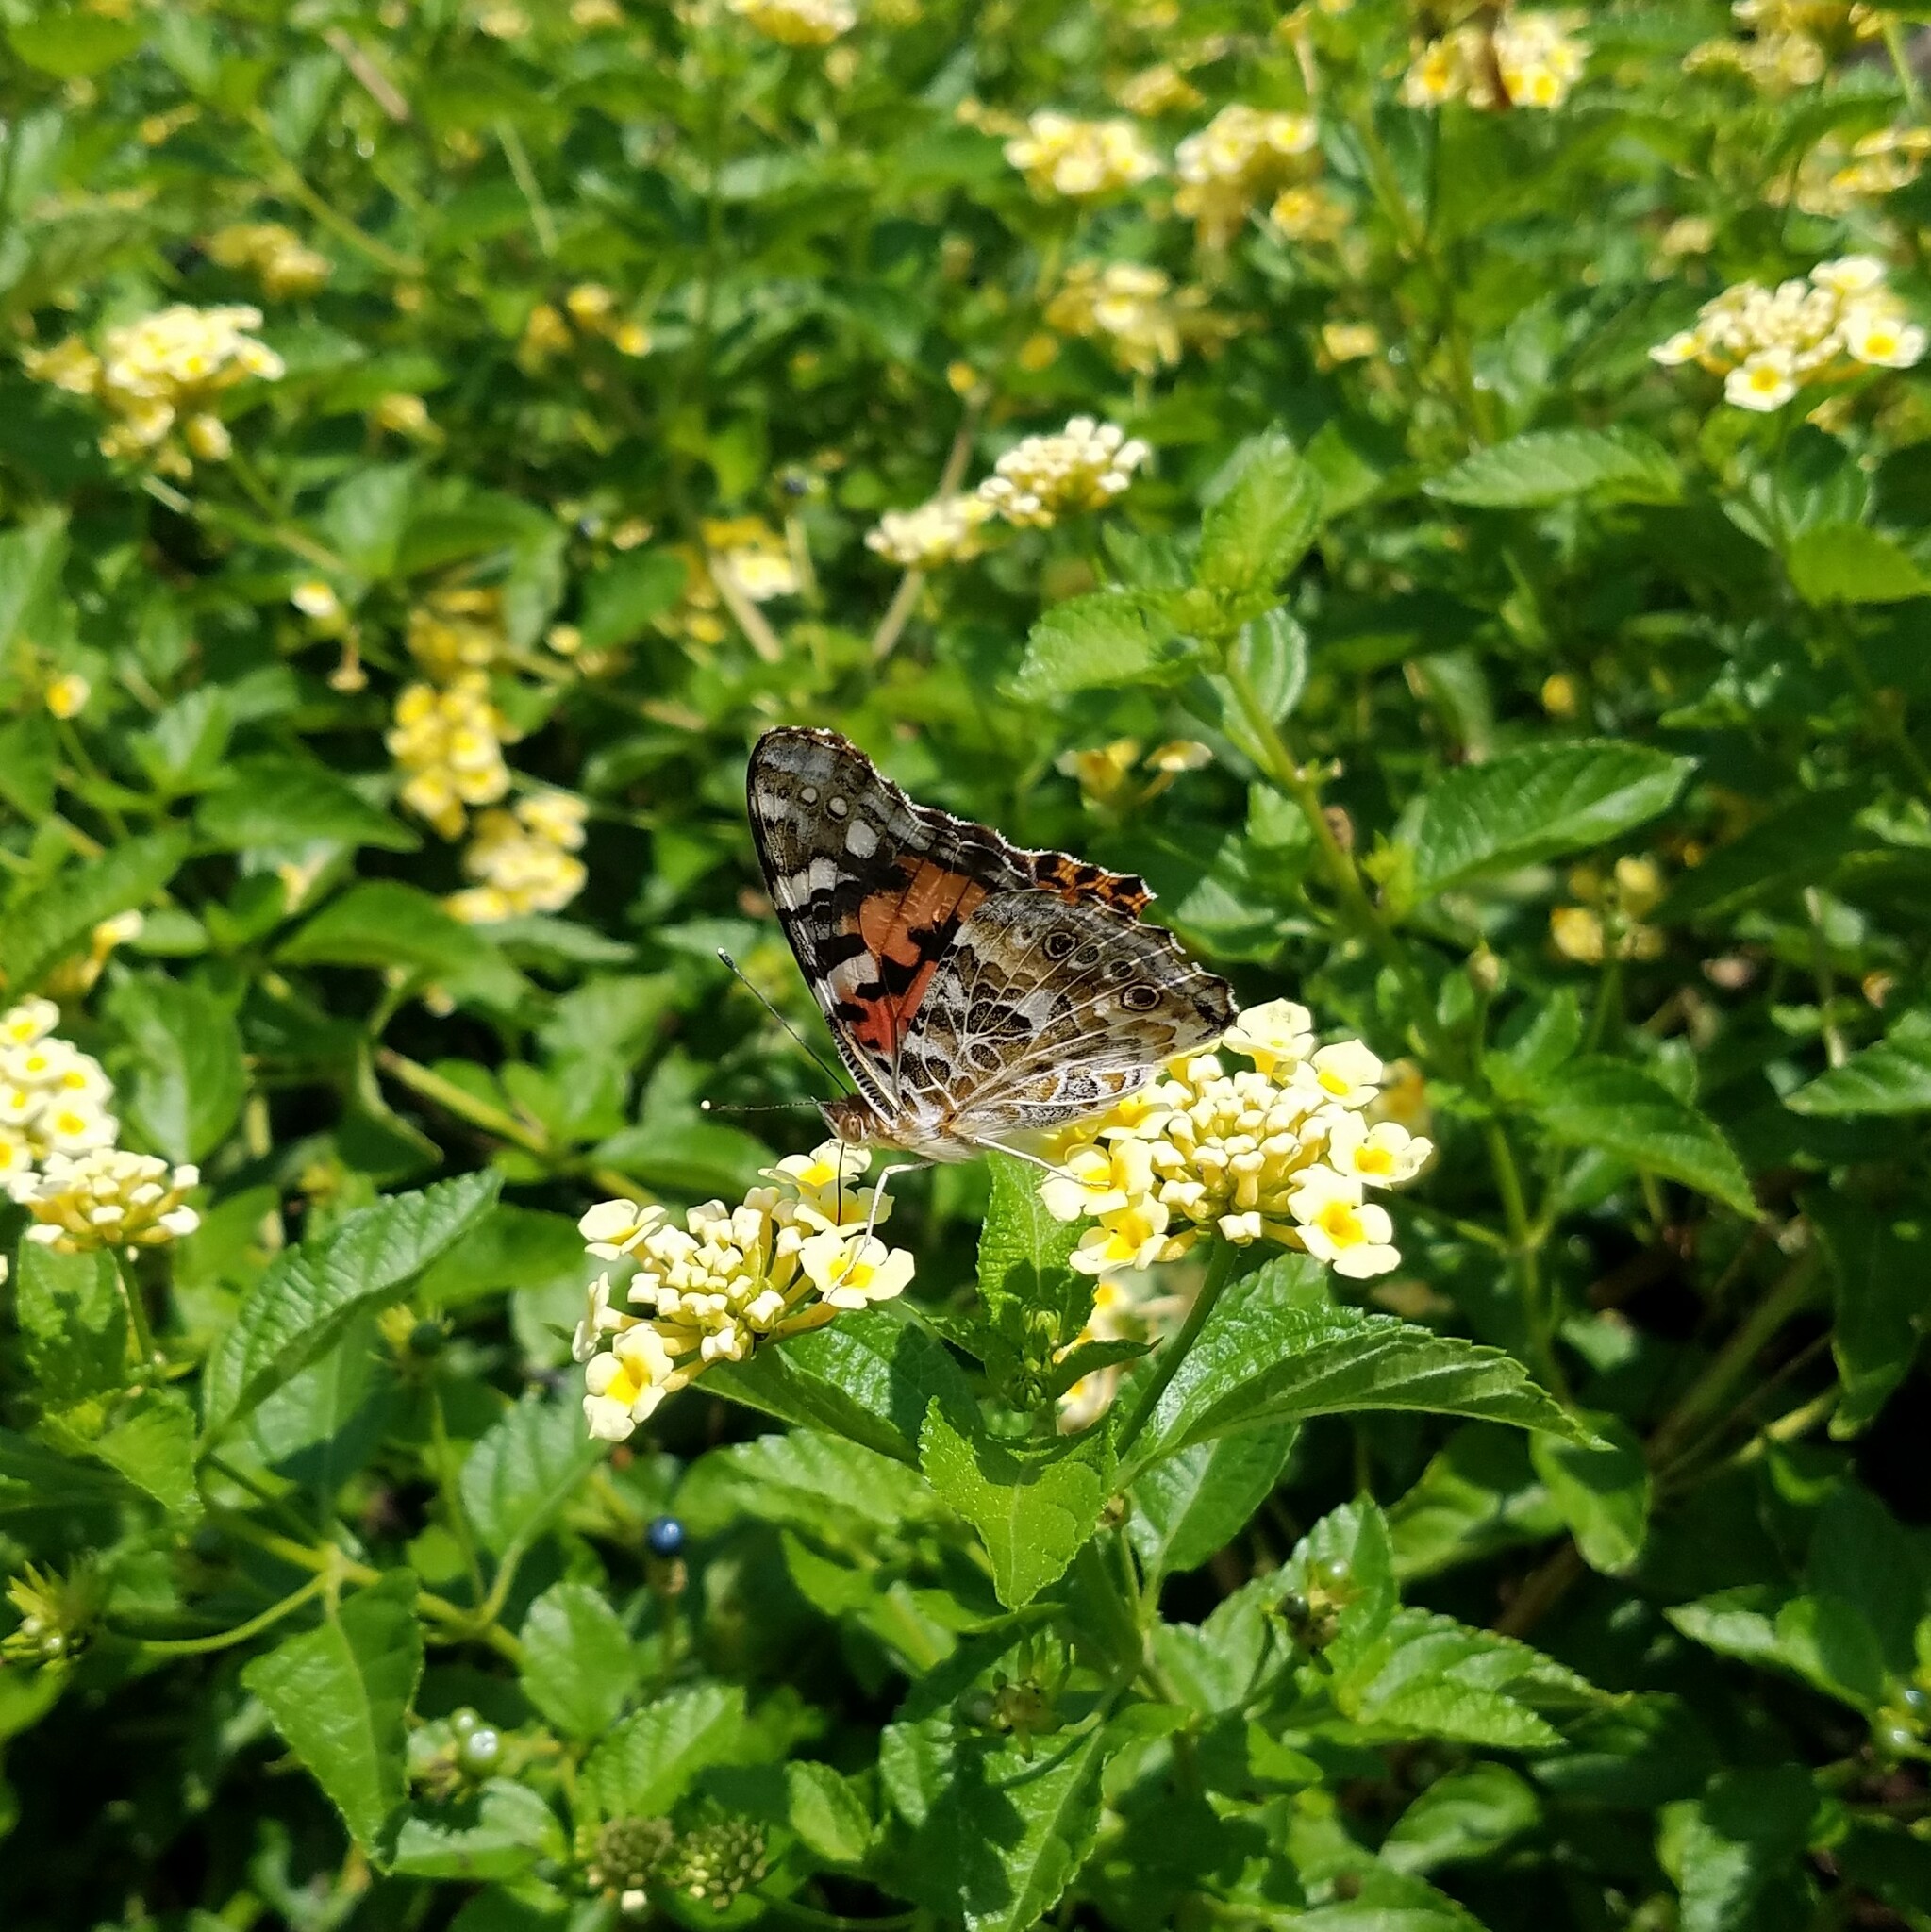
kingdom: Animalia
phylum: Arthropoda
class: Insecta
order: Lepidoptera
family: Nymphalidae
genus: Vanessa
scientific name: Vanessa cardui
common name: Painted lady
